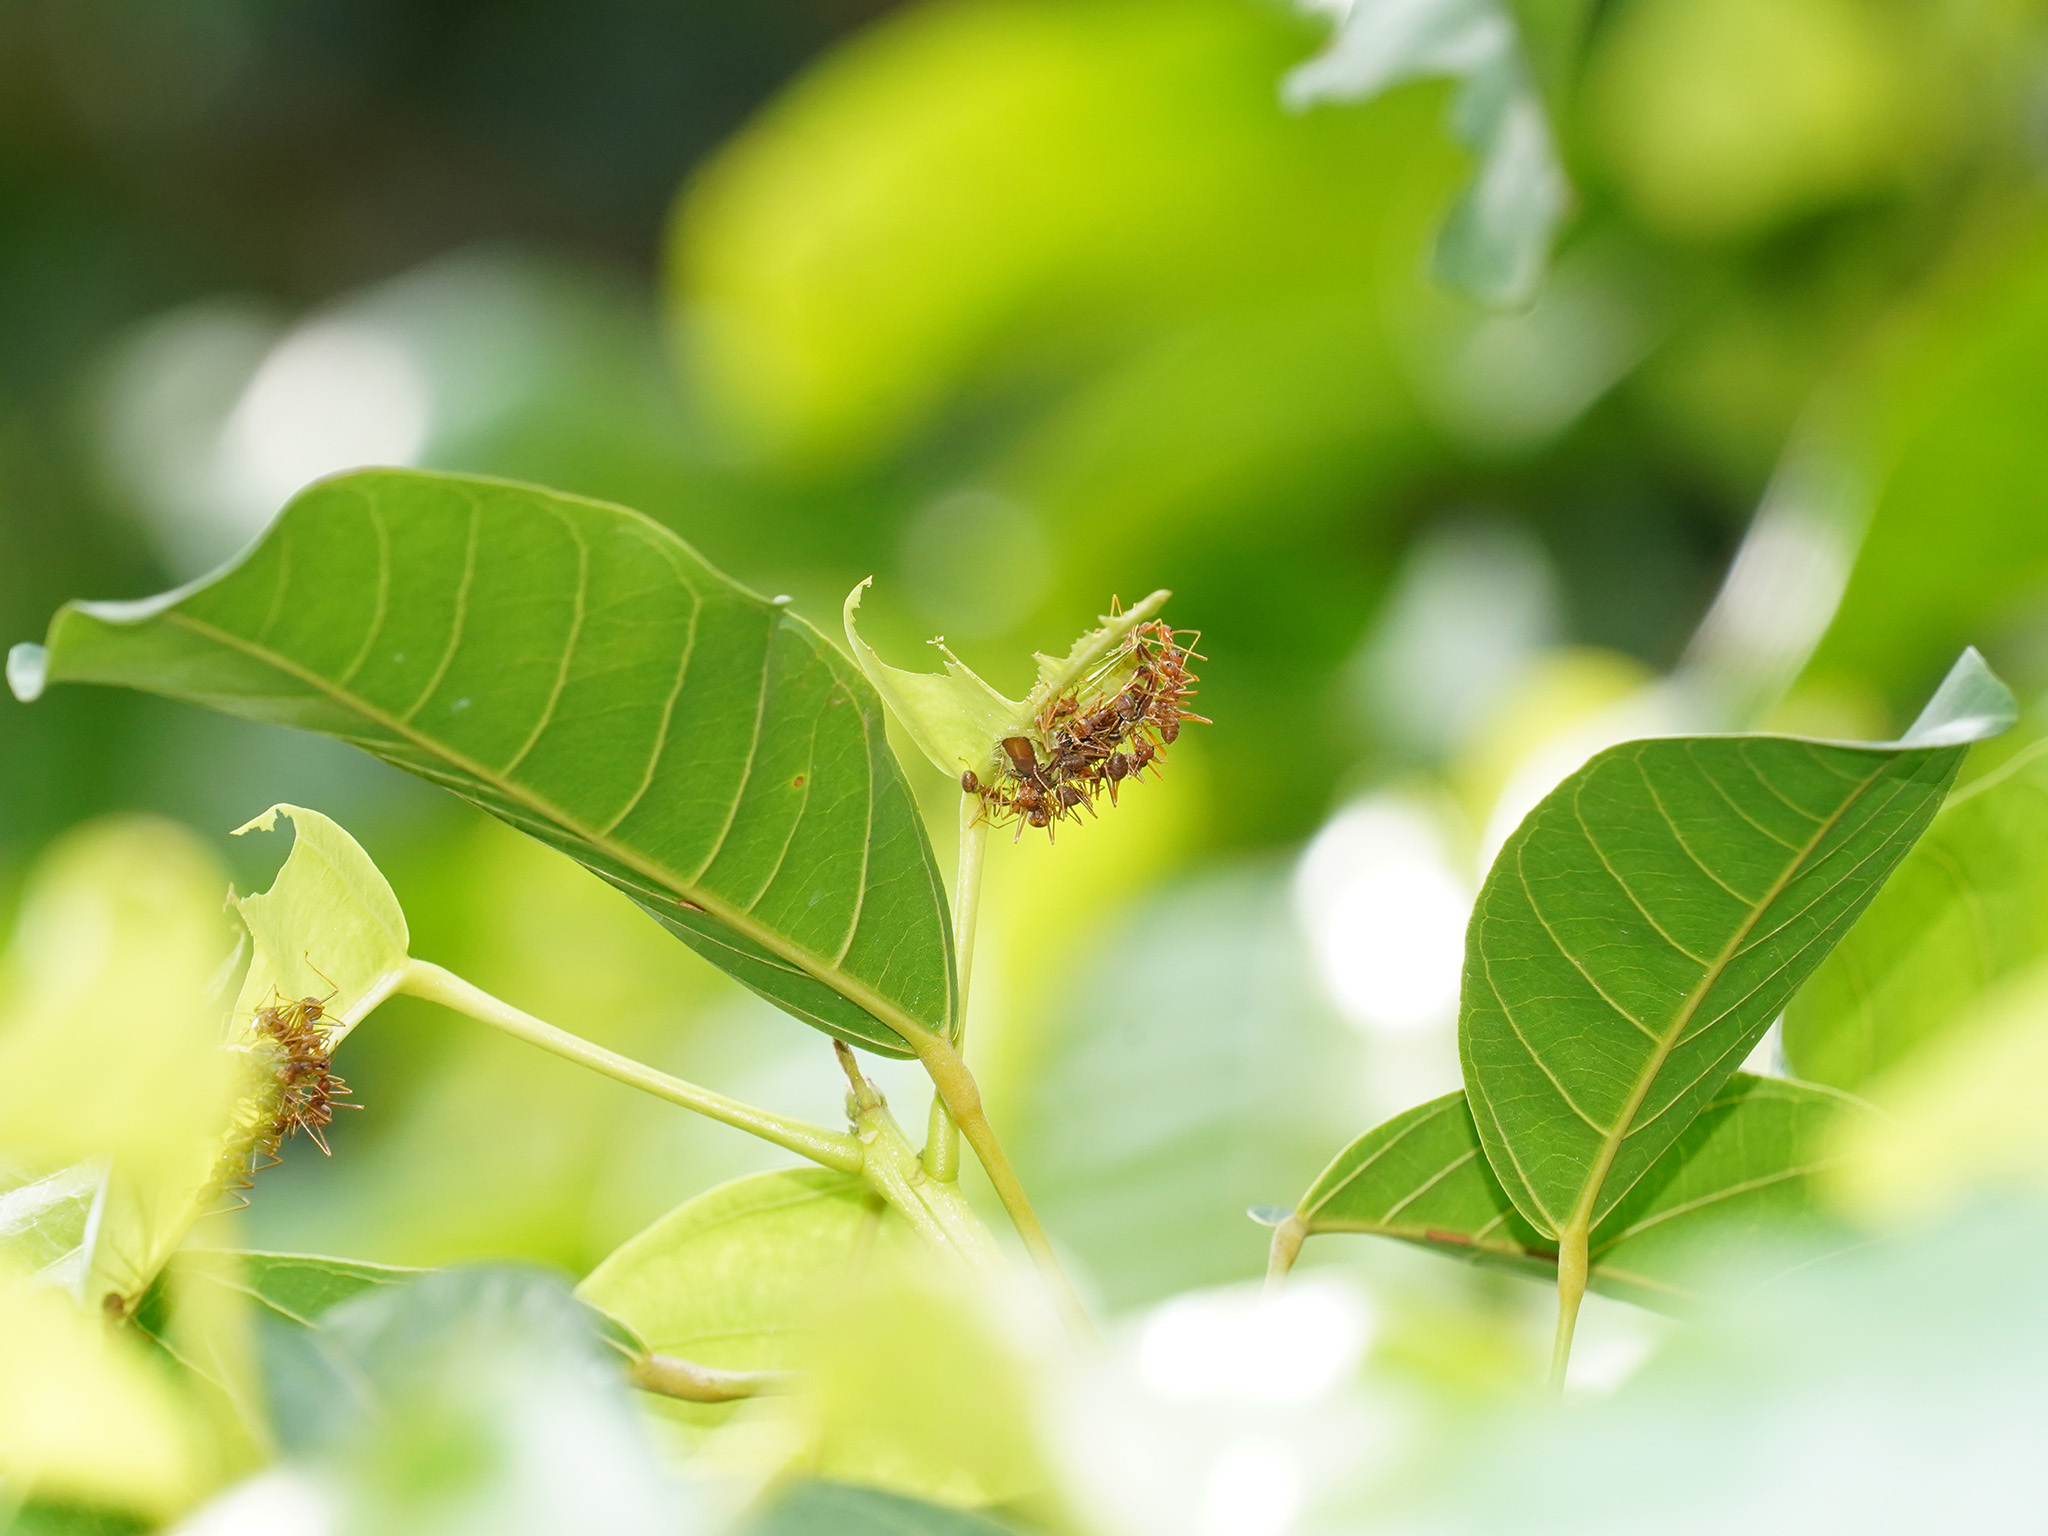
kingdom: Animalia
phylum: Arthropoda
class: Insecta
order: Lepidoptera
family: Lycaenidae
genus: Hypolycaena
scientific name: Hypolycaena erylus
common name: Common tit
